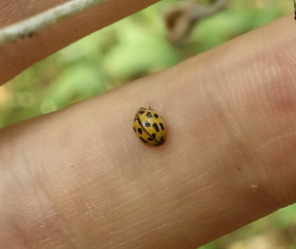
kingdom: Animalia
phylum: Arthropoda
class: Insecta
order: Coleoptera
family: Coccinellidae
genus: Propylaea
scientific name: Propylaea quatuordecimpunctata
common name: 14-spotted ladybird beetle
